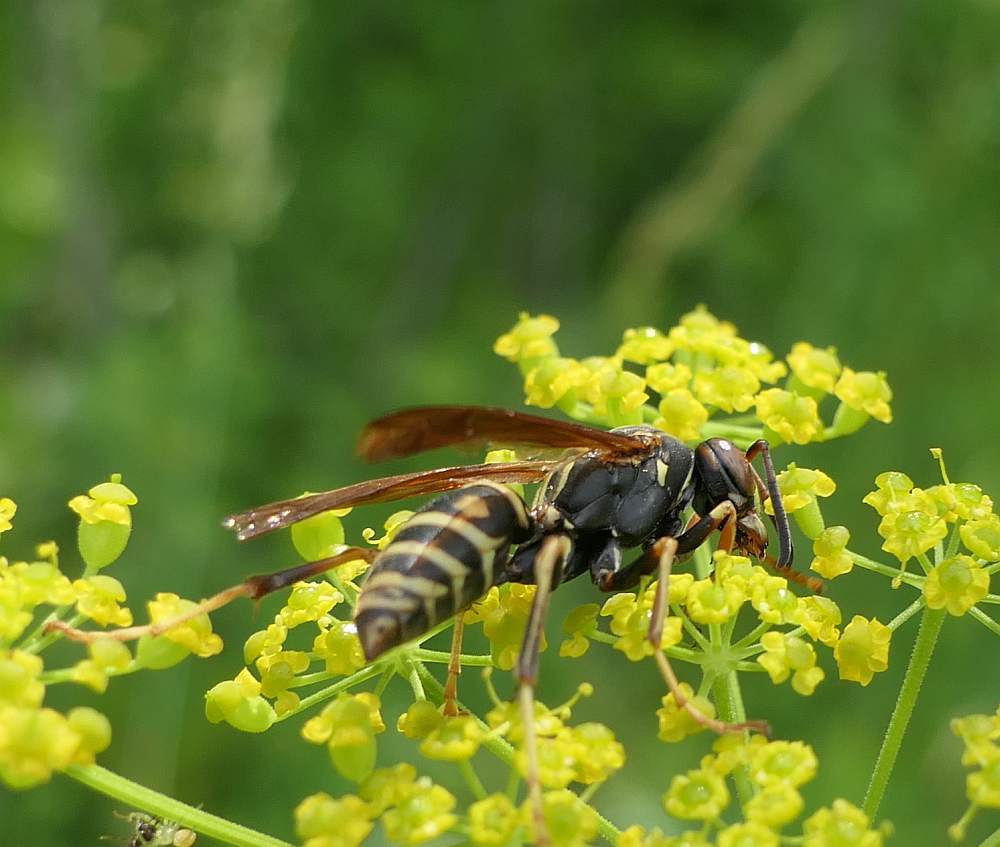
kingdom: Animalia
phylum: Arthropoda
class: Insecta
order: Hymenoptera
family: Eumenidae
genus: Polistes
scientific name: Polistes fuscatus
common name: Dark paper wasp
